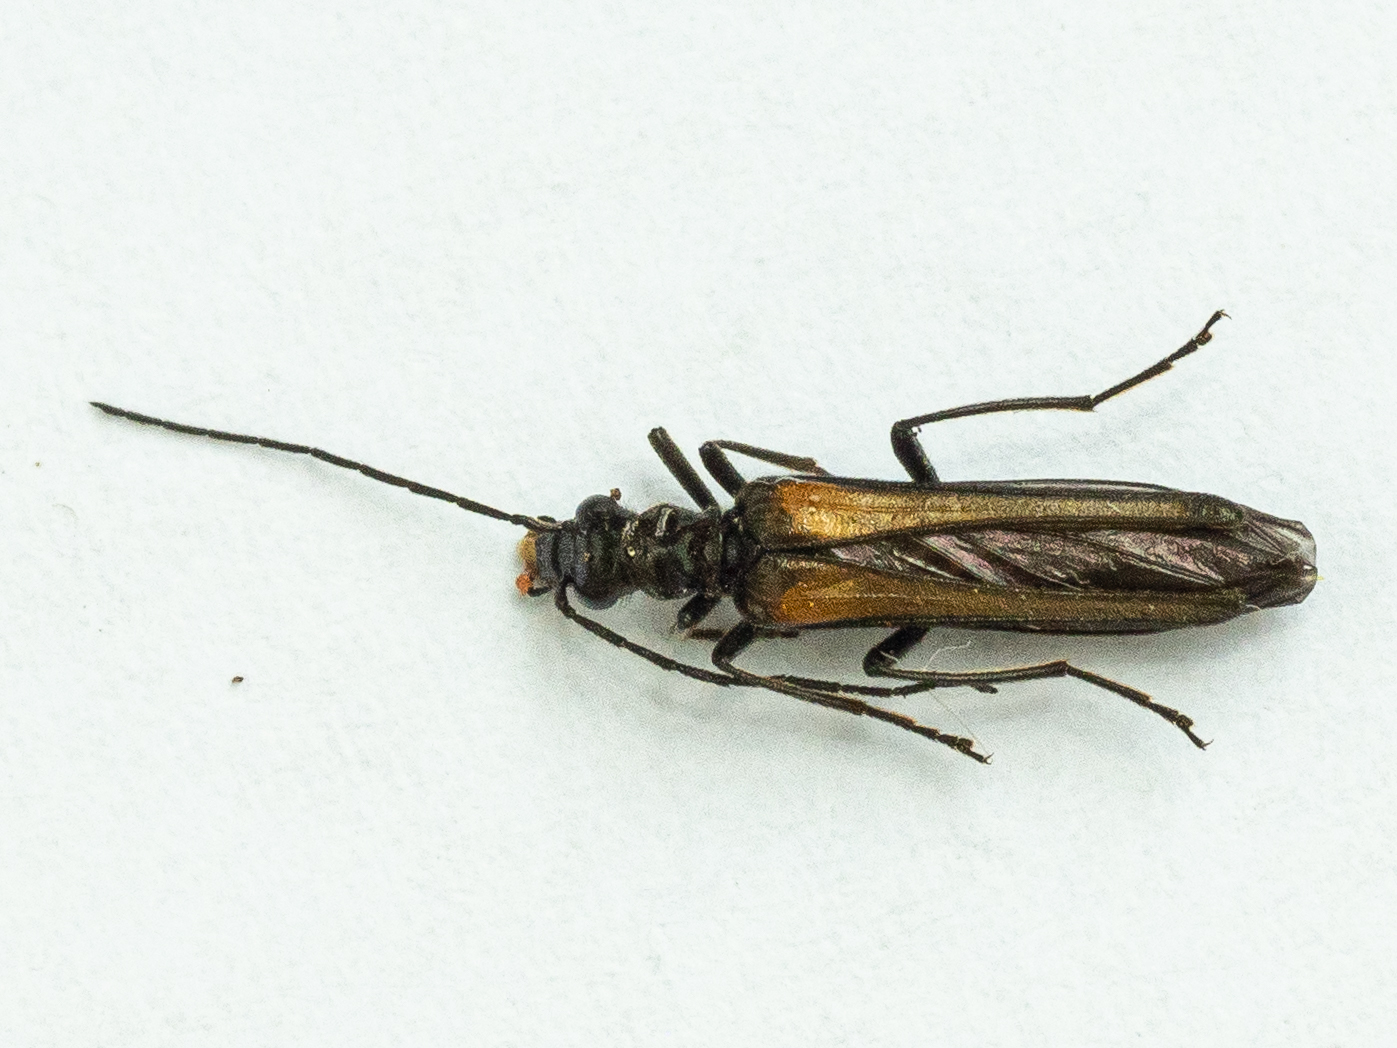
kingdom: Animalia
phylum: Arthropoda
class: Insecta
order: Coleoptera
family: Oedemeridae
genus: Oedemera
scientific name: Oedemera pthysica
